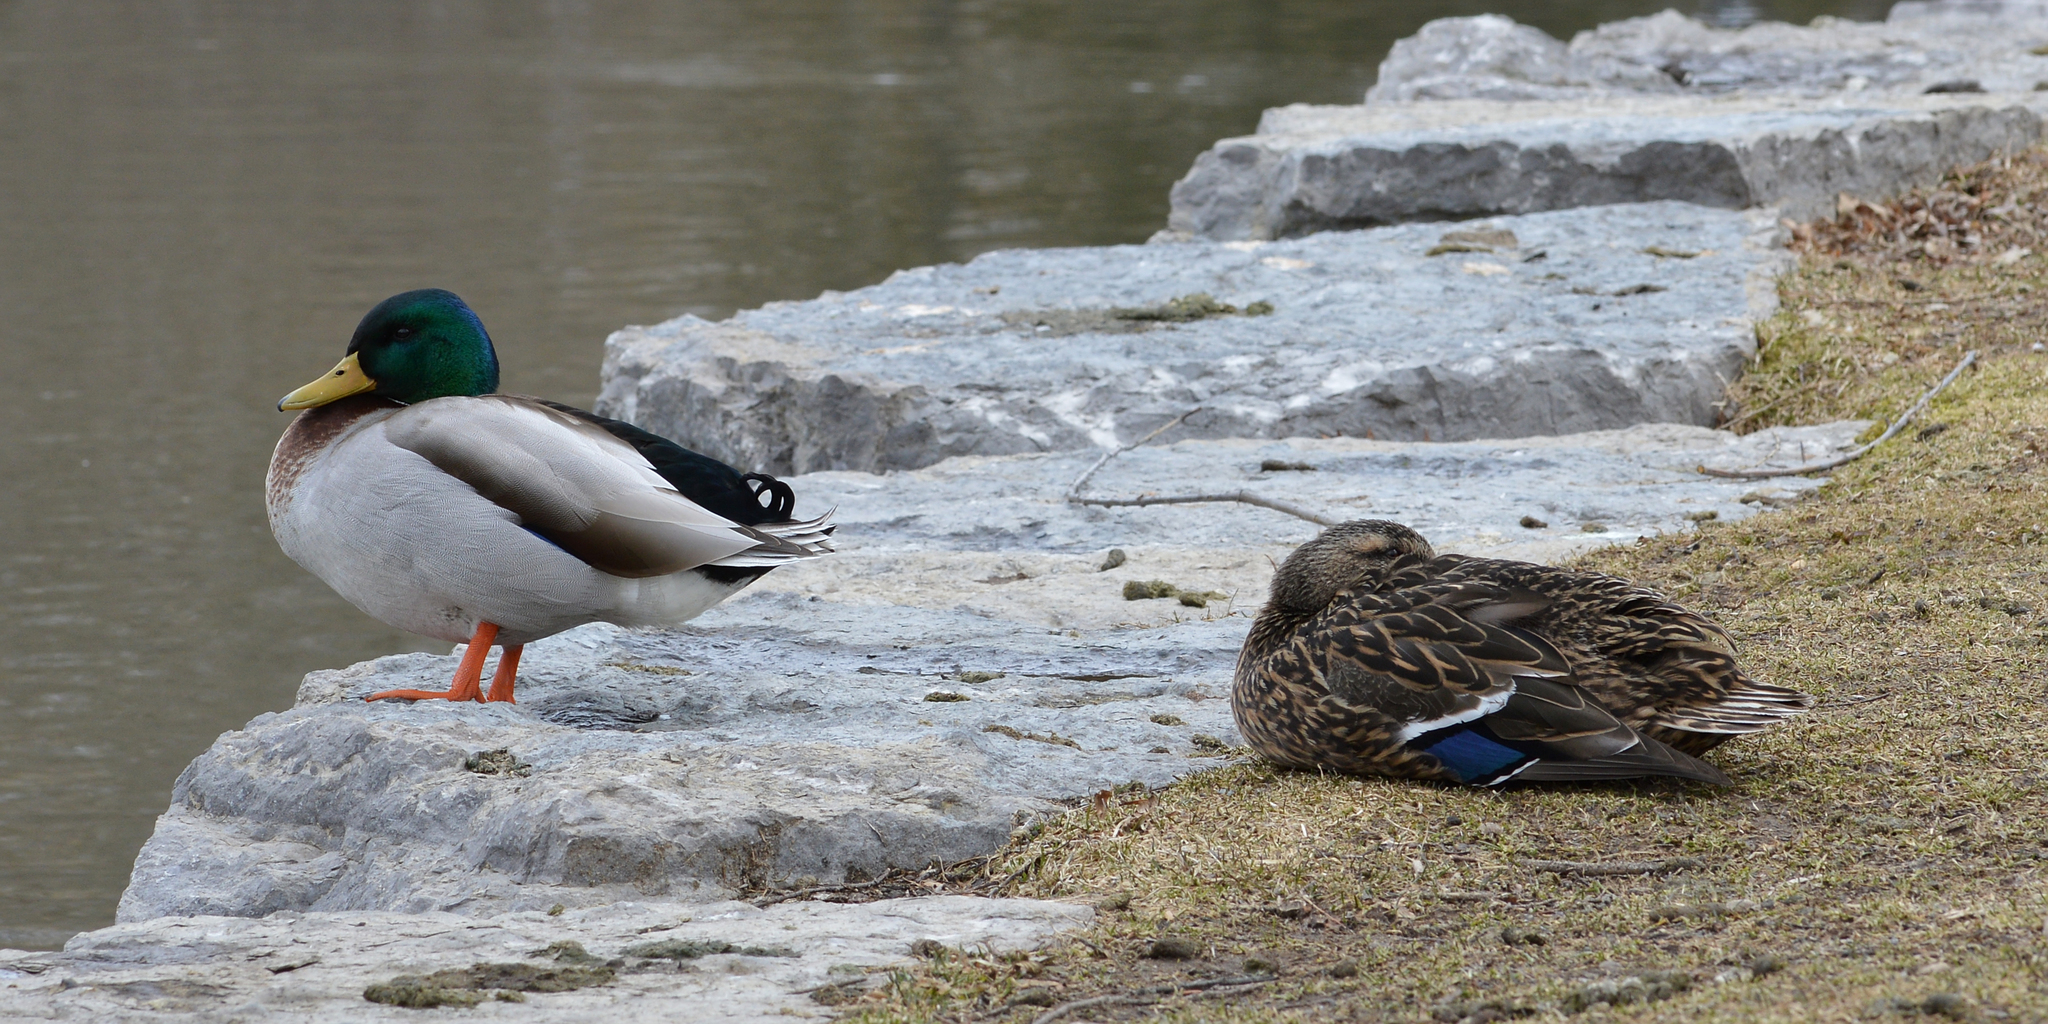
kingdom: Animalia
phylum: Chordata
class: Aves
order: Anseriformes
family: Anatidae
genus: Anas
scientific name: Anas platyrhynchos
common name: Mallard
